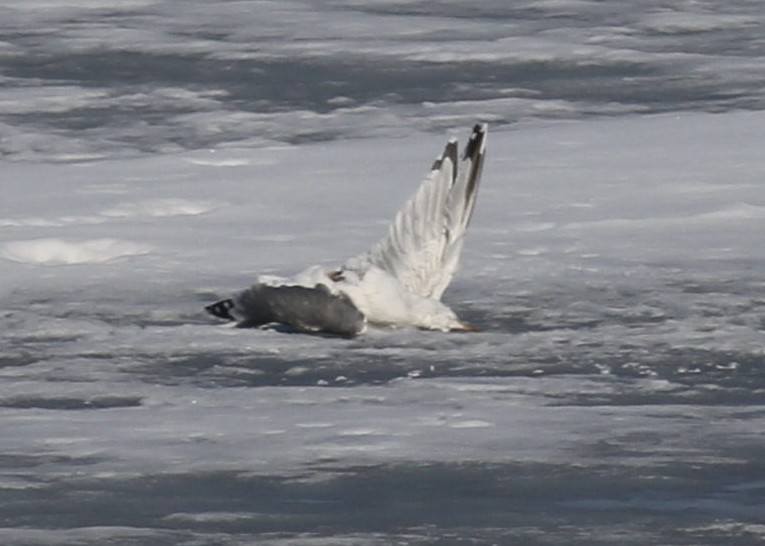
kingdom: Animalia
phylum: Chordata
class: Aves
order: Charadriiformes
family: Laridae
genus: Larus
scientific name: Larus cachinnans
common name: Caspian gull
